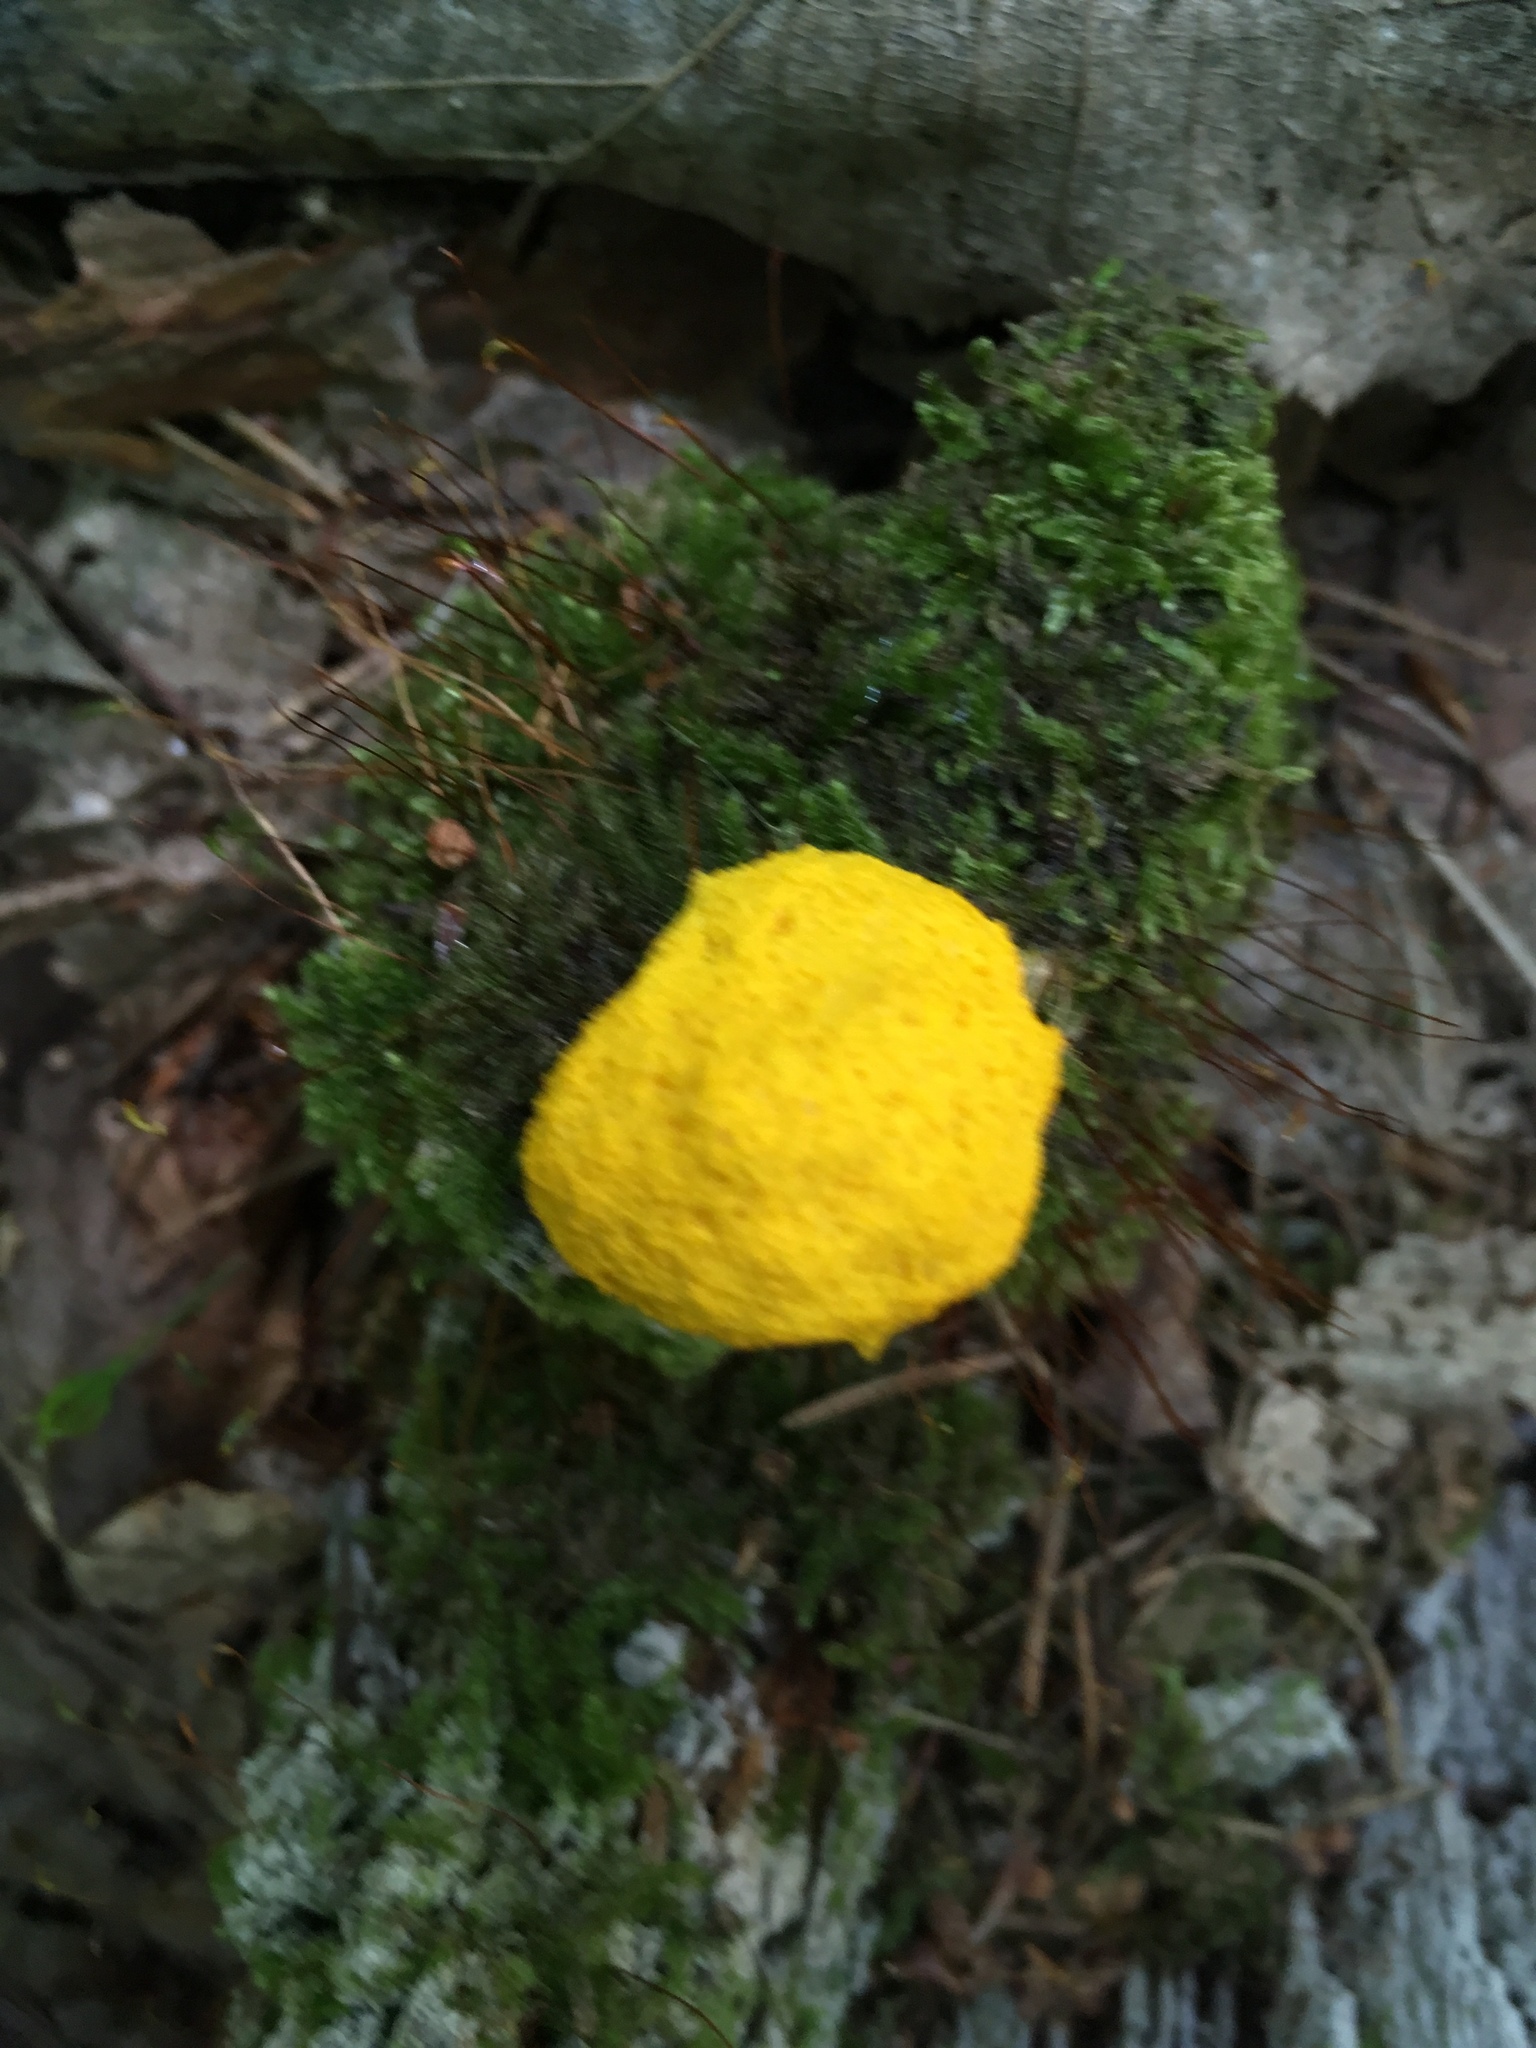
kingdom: Protozoa
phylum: Mycetozoa
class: Myxomycetes
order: Physarales
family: Physaraceae
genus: Fuligo
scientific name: Fuligo septica
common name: Dog vomit slime mold
